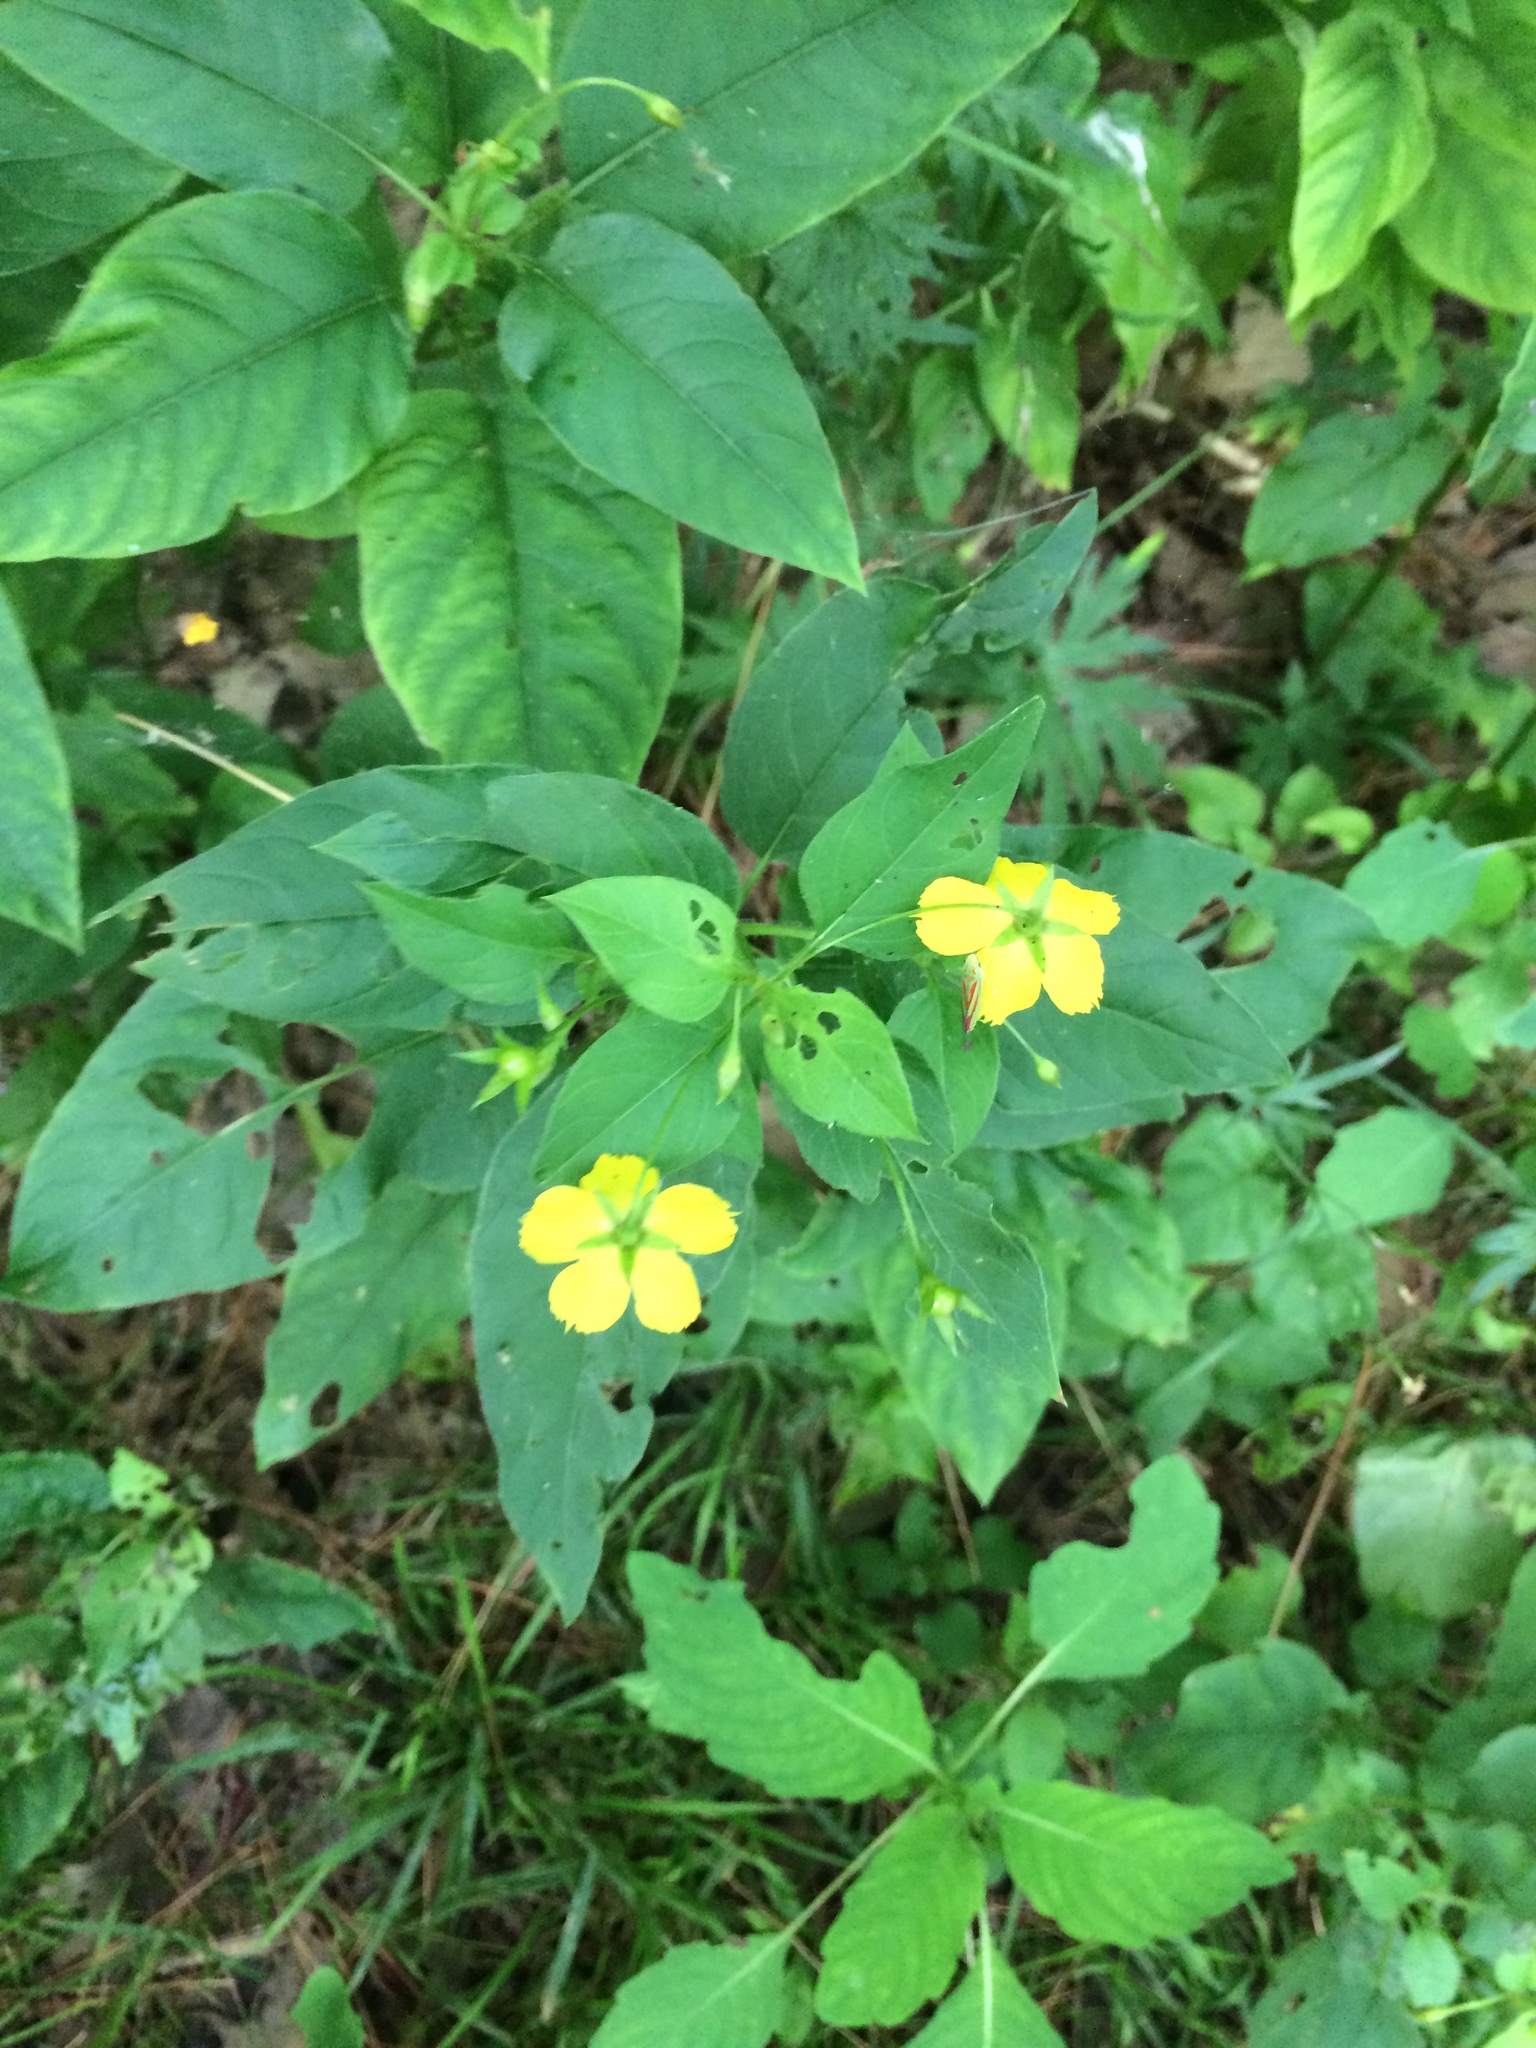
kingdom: Plantae
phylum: Tracheophyta
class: Magnoliopsida
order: Ericales
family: Primulaceae
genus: Lysimachia
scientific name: Lysimachia ciliata
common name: Fringed loosestrife
